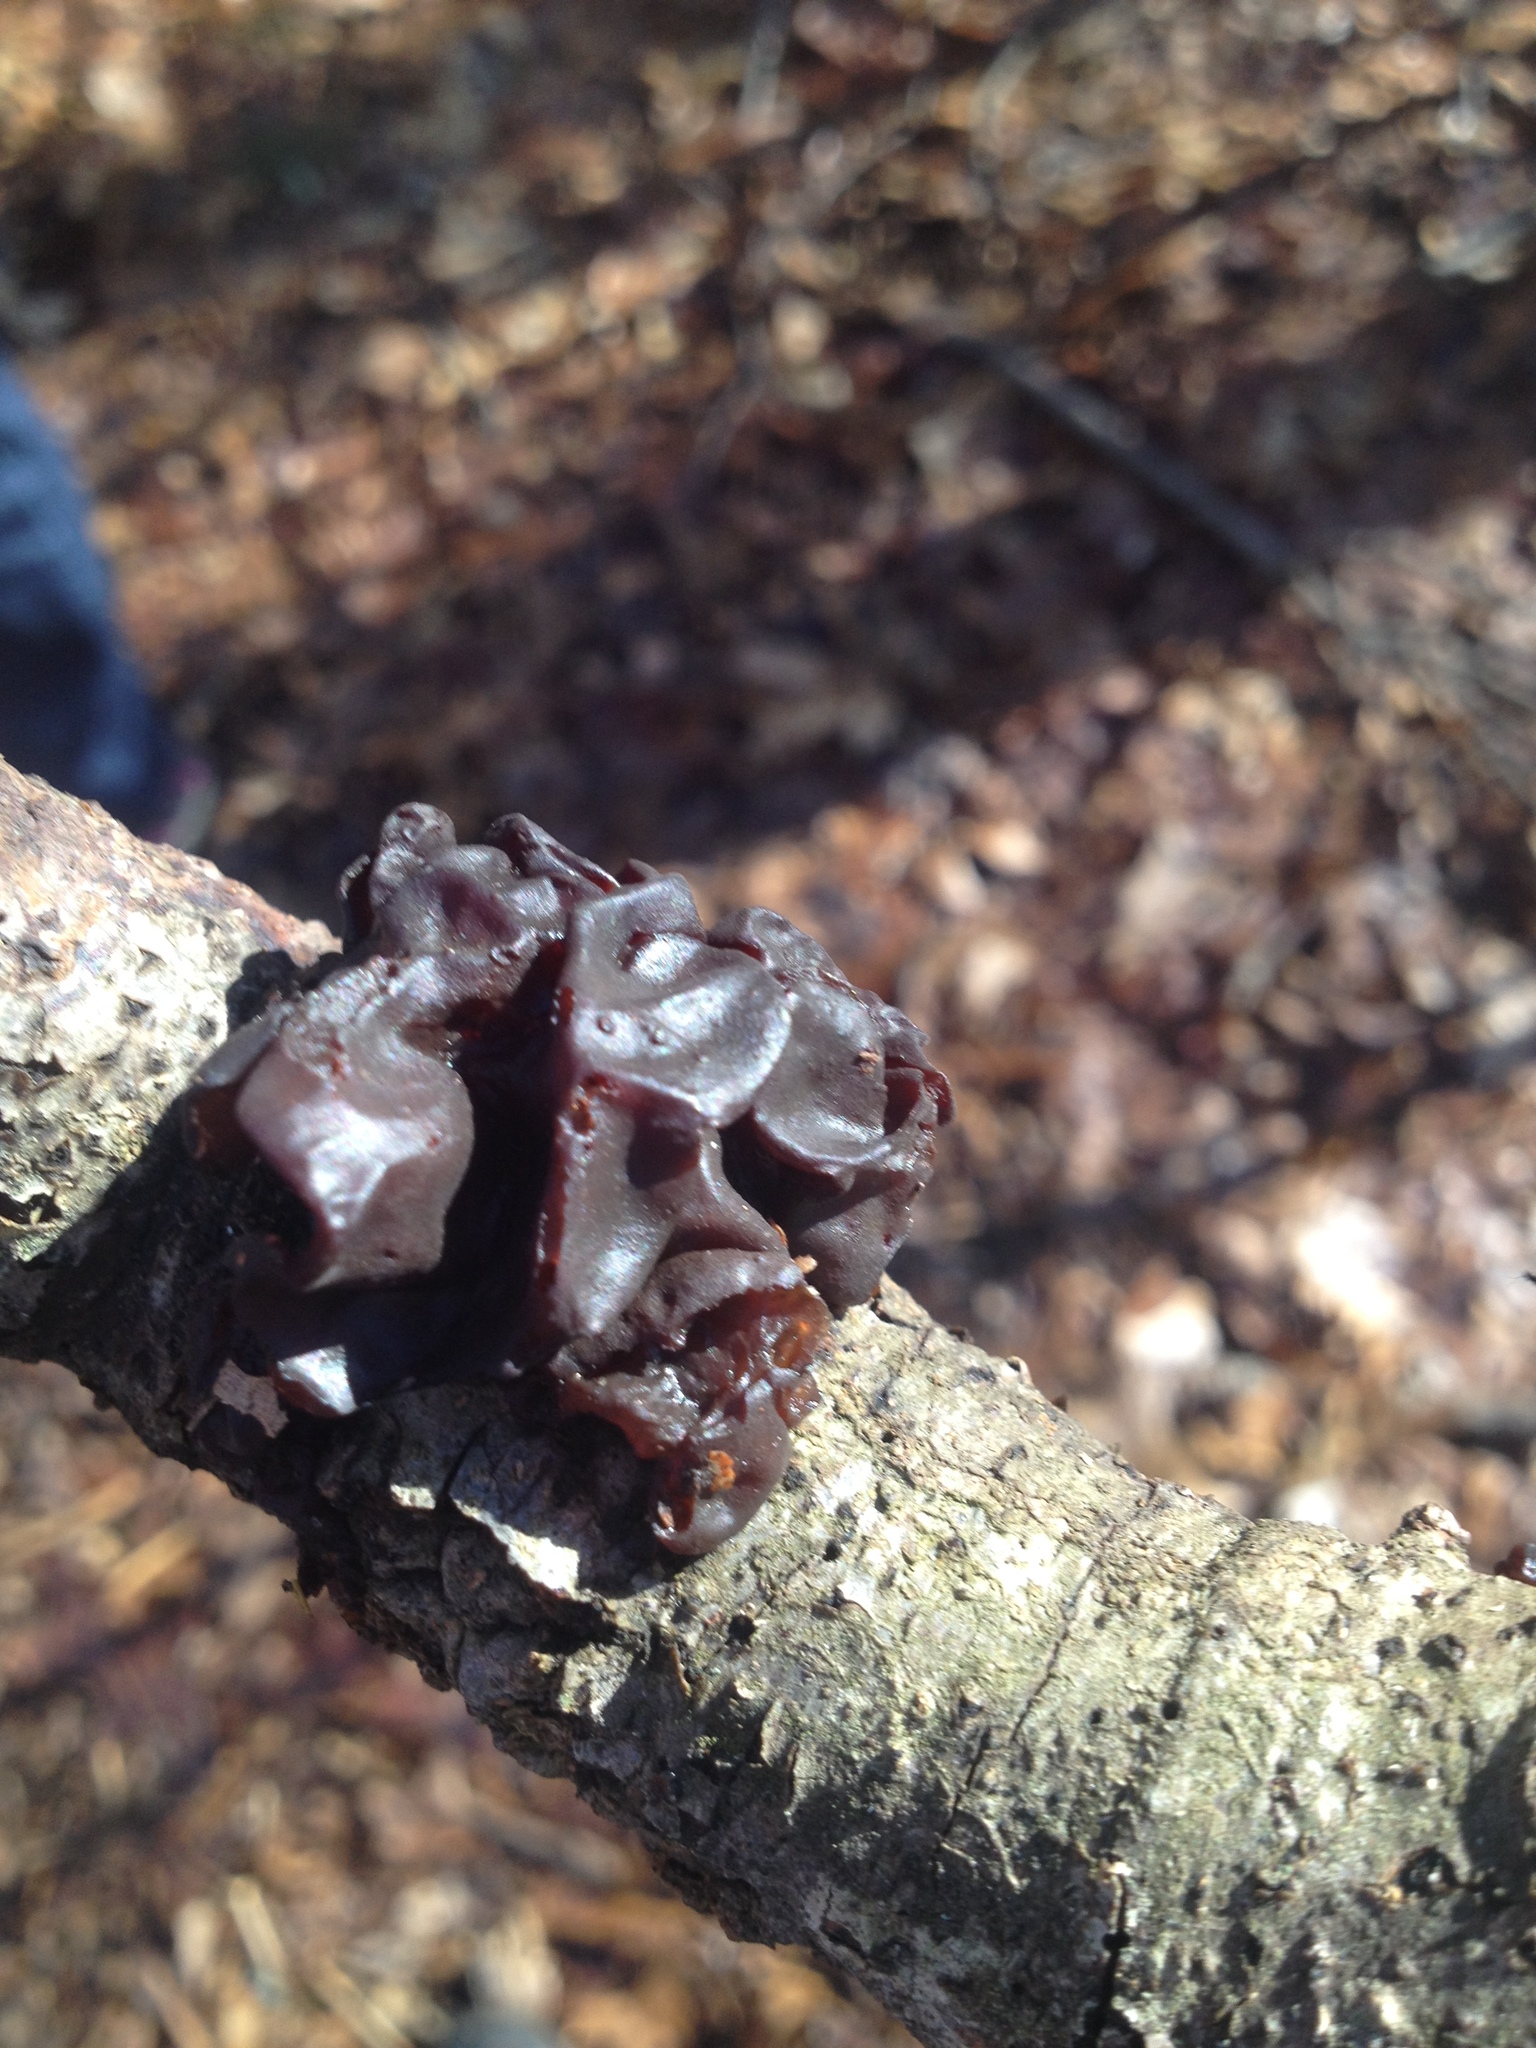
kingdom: Fungi
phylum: Basidiomycota
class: Agaricomycetes
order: Auriculariales
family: Auriculariaceae
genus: Exidia
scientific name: Exidia
